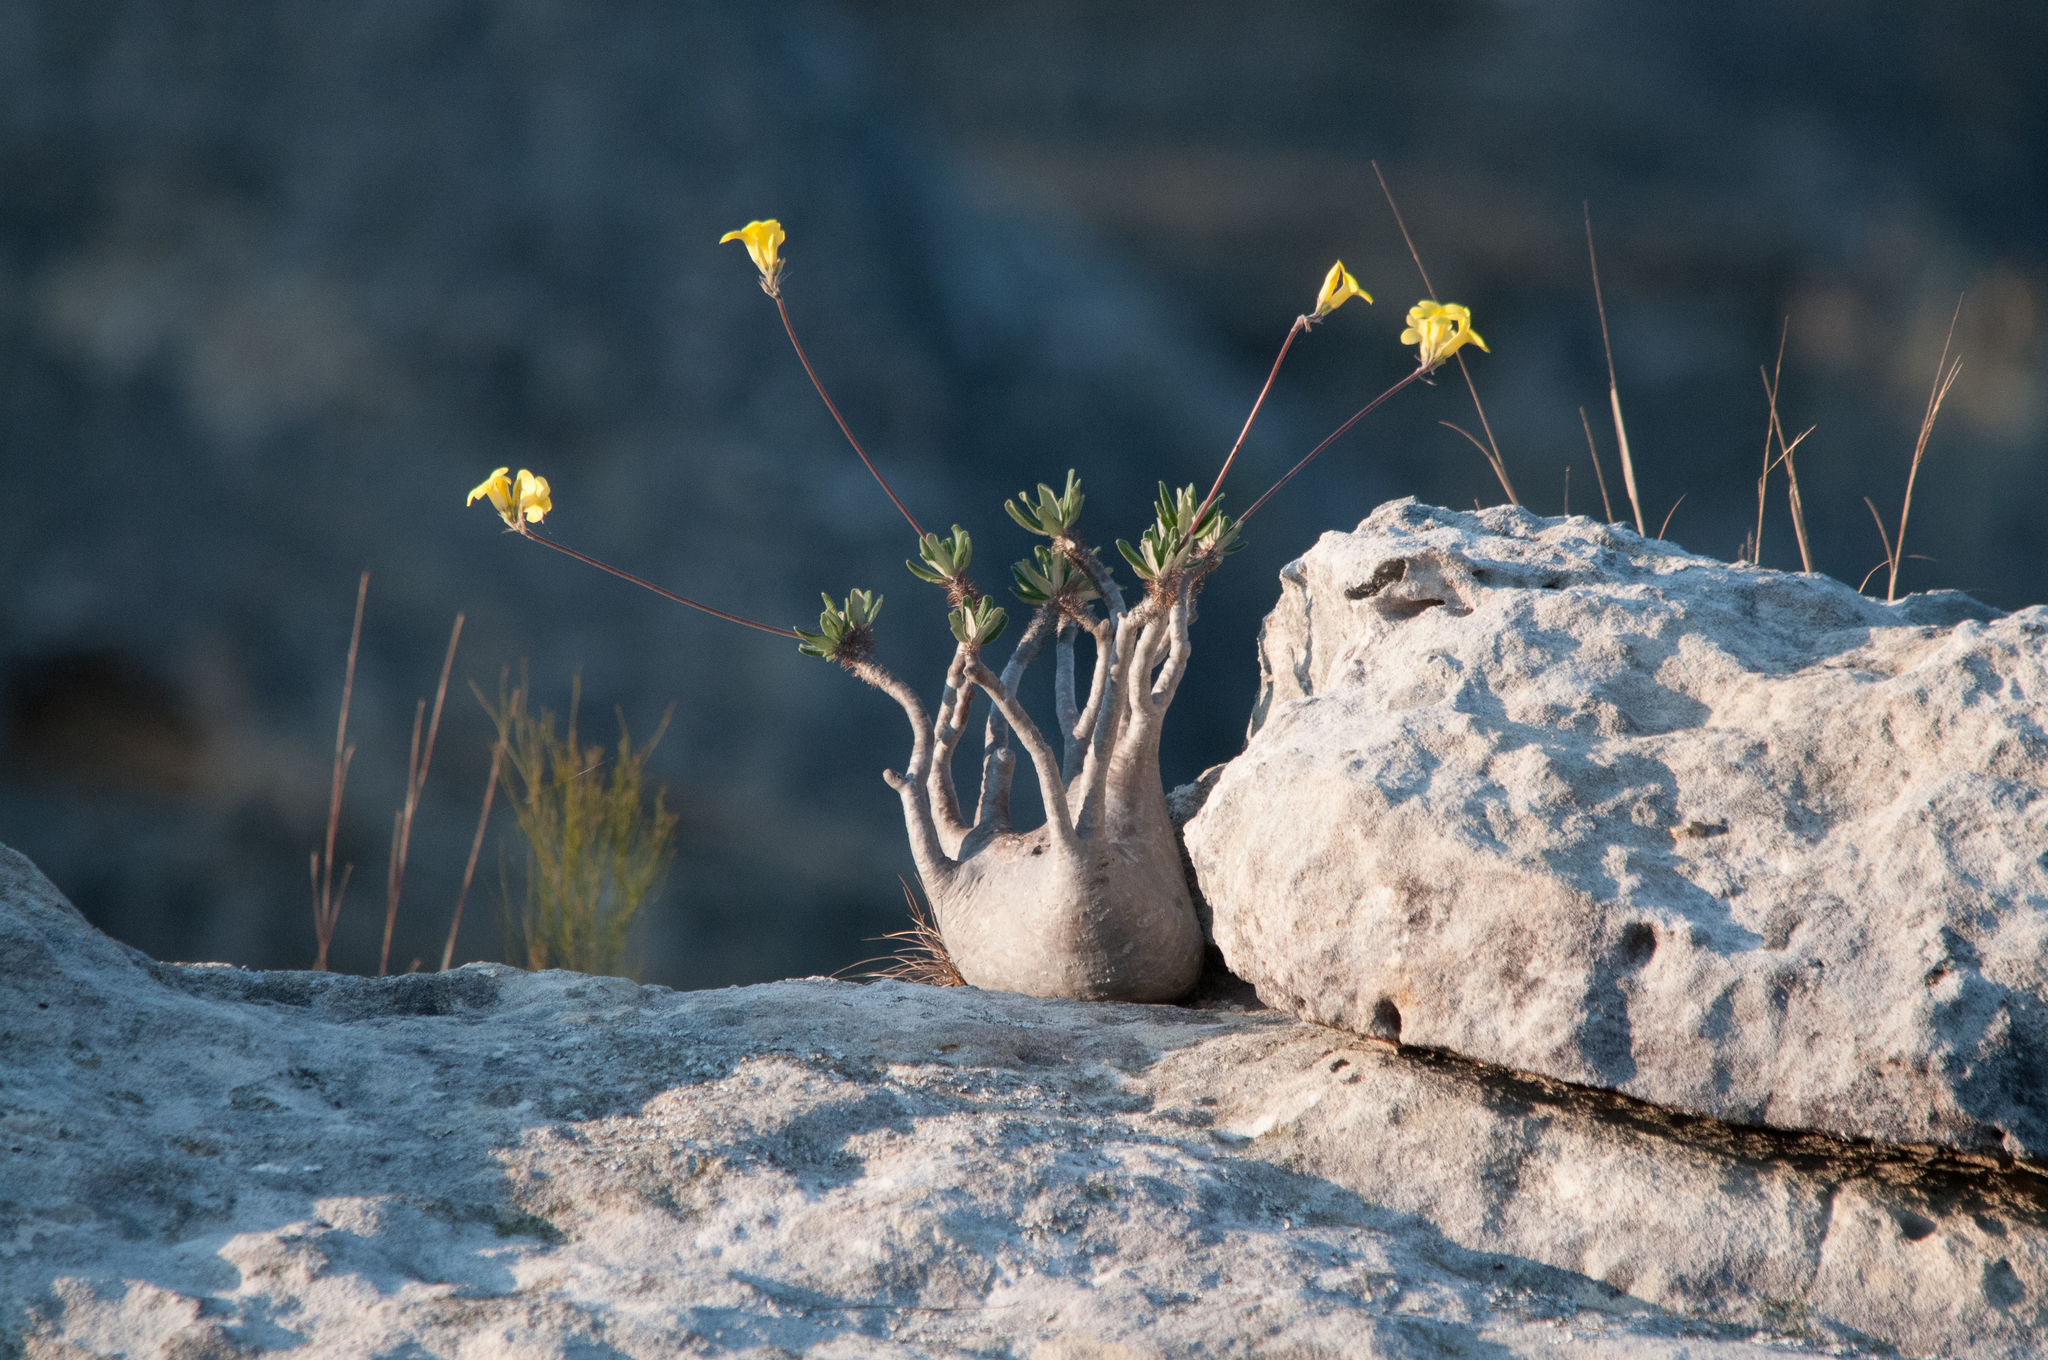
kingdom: Plantae
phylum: Tracheophyta
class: Magnoliopsida
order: Gentianales
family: Apocynaceae
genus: Pachypodium
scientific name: Pachypodium gracilius
